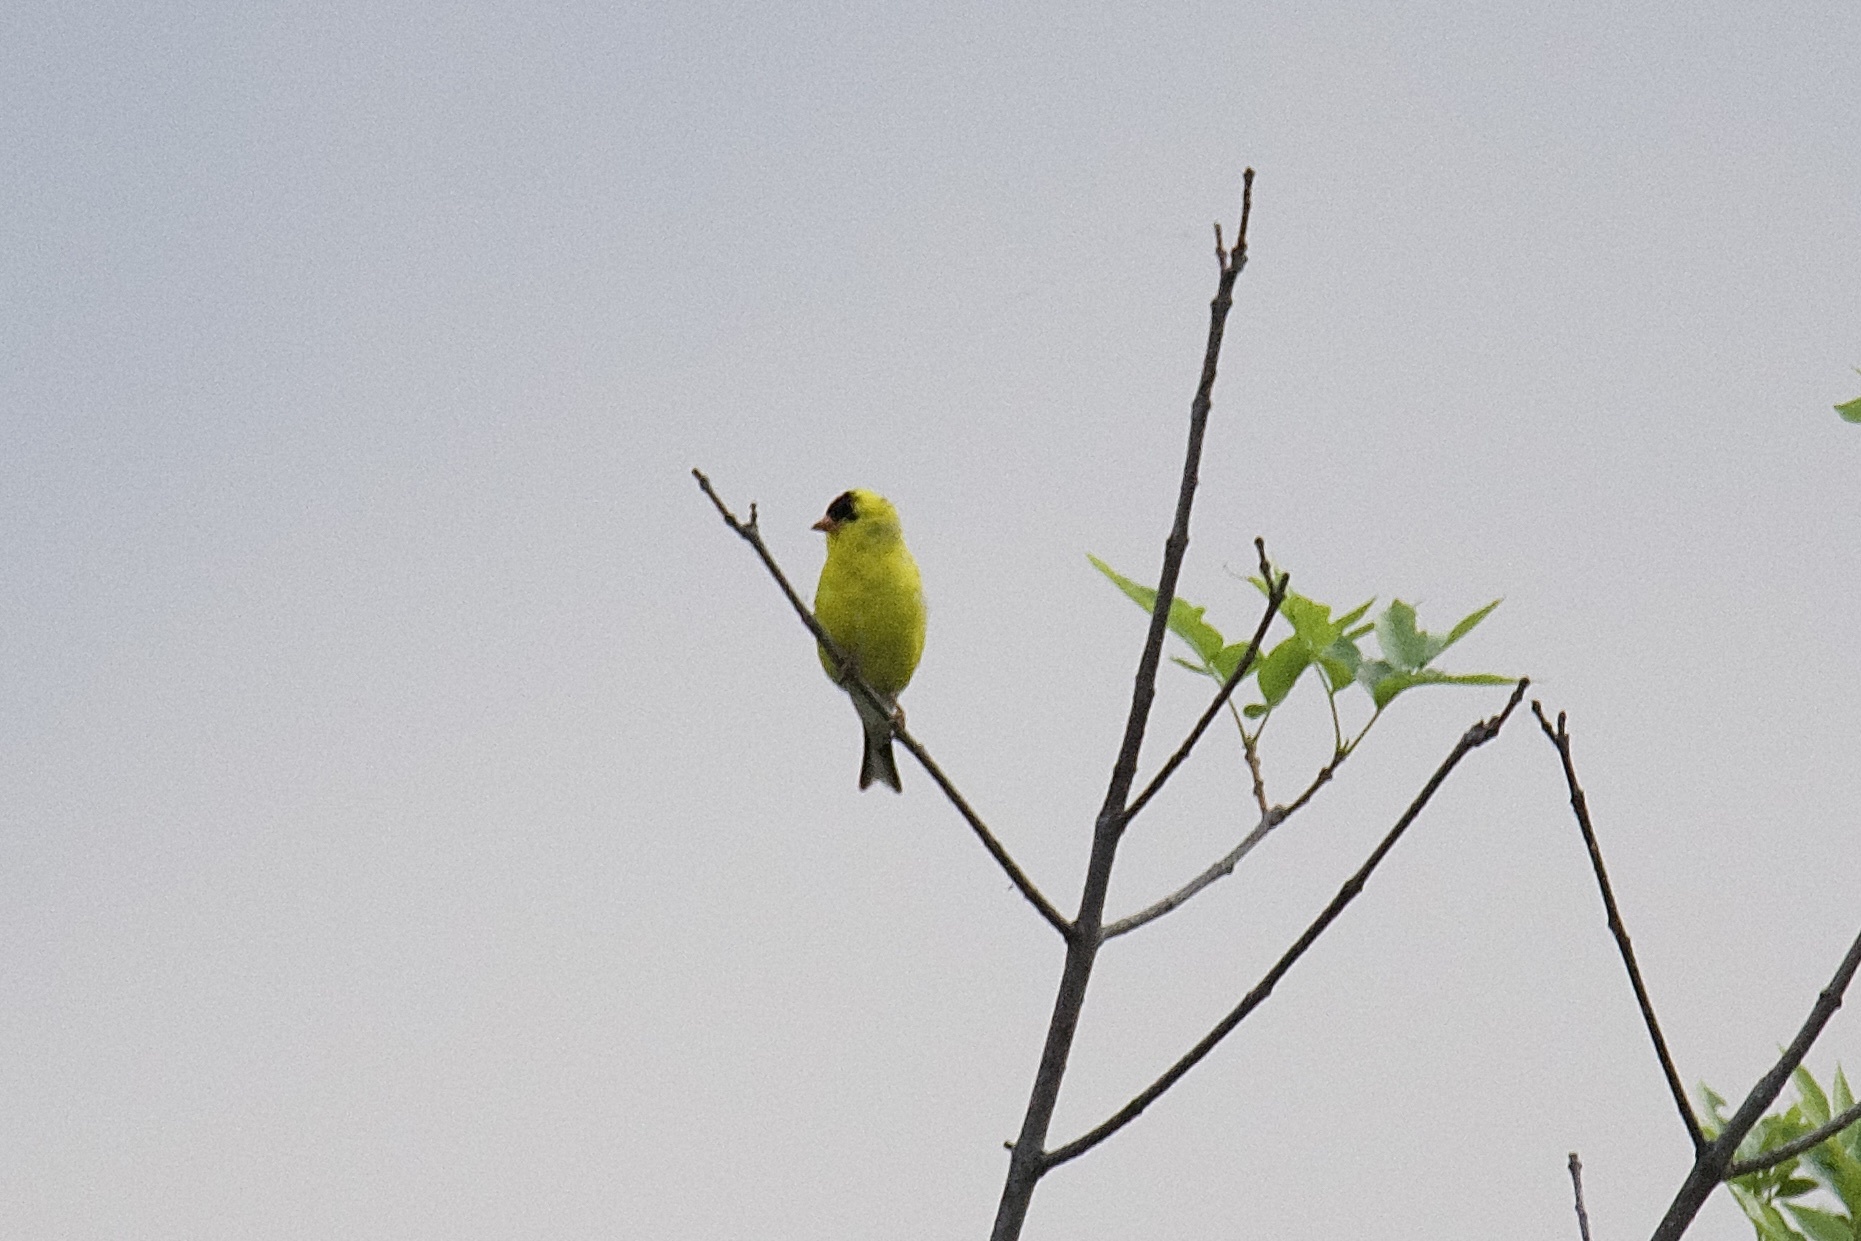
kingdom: Animalia
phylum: Chordata
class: Aves
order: Passeriformes
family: Fringillidae
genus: Spinus
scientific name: Spinus tristis
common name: American goldfinch
